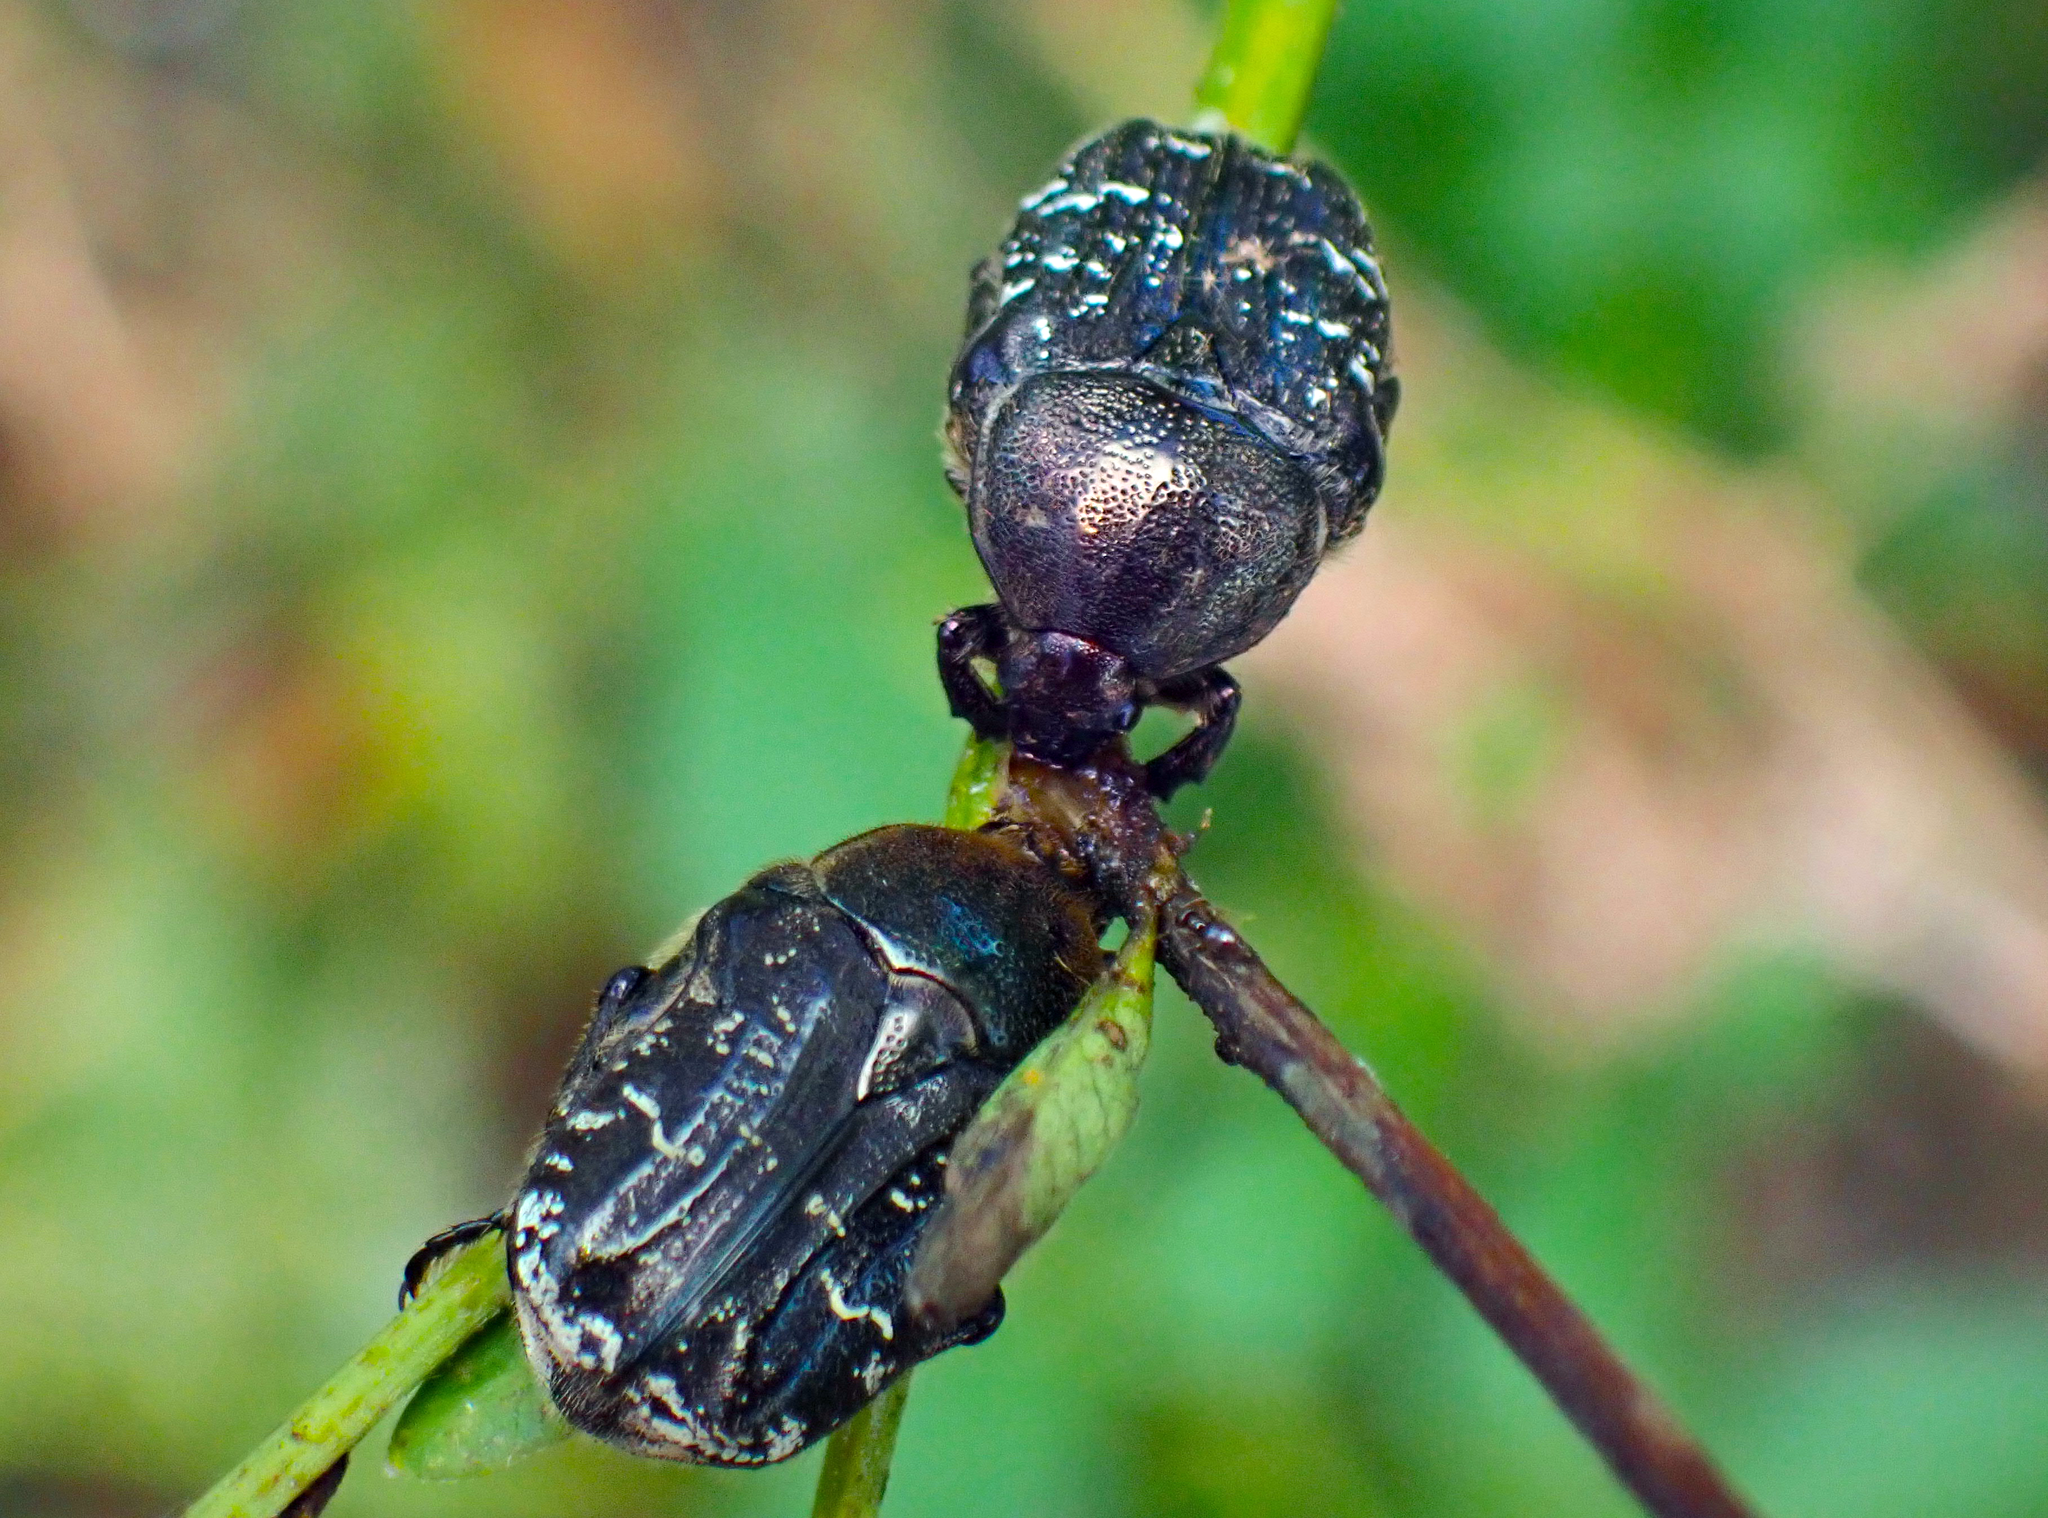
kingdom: Animalia
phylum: Arthropoda
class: Insecta
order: Coleoptera
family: Scarabaeidae
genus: Euphoria
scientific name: Euphoria sepulcralis
